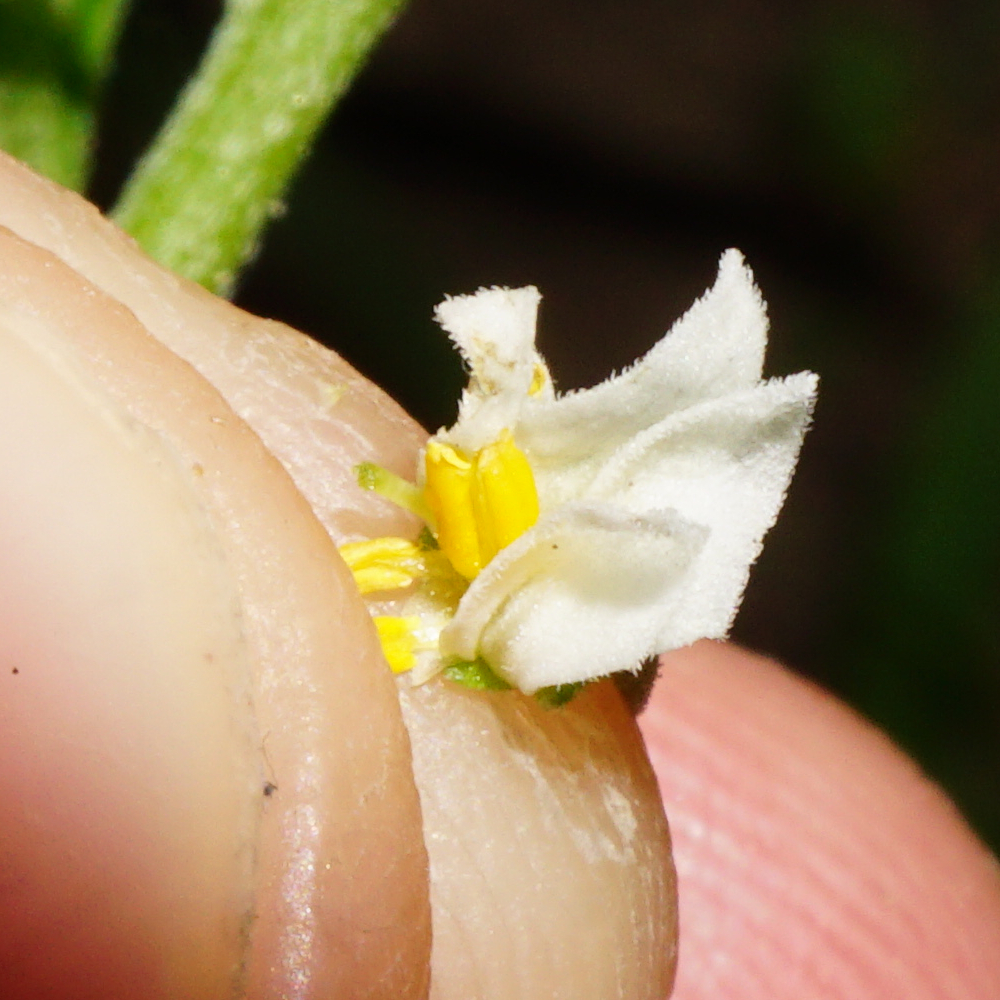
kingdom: Plantae
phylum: Tracheophyta
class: Magnoliopsida
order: Solanales
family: Solanaceae
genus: Solanum
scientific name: Solanum nigrum
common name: Black nightshade
